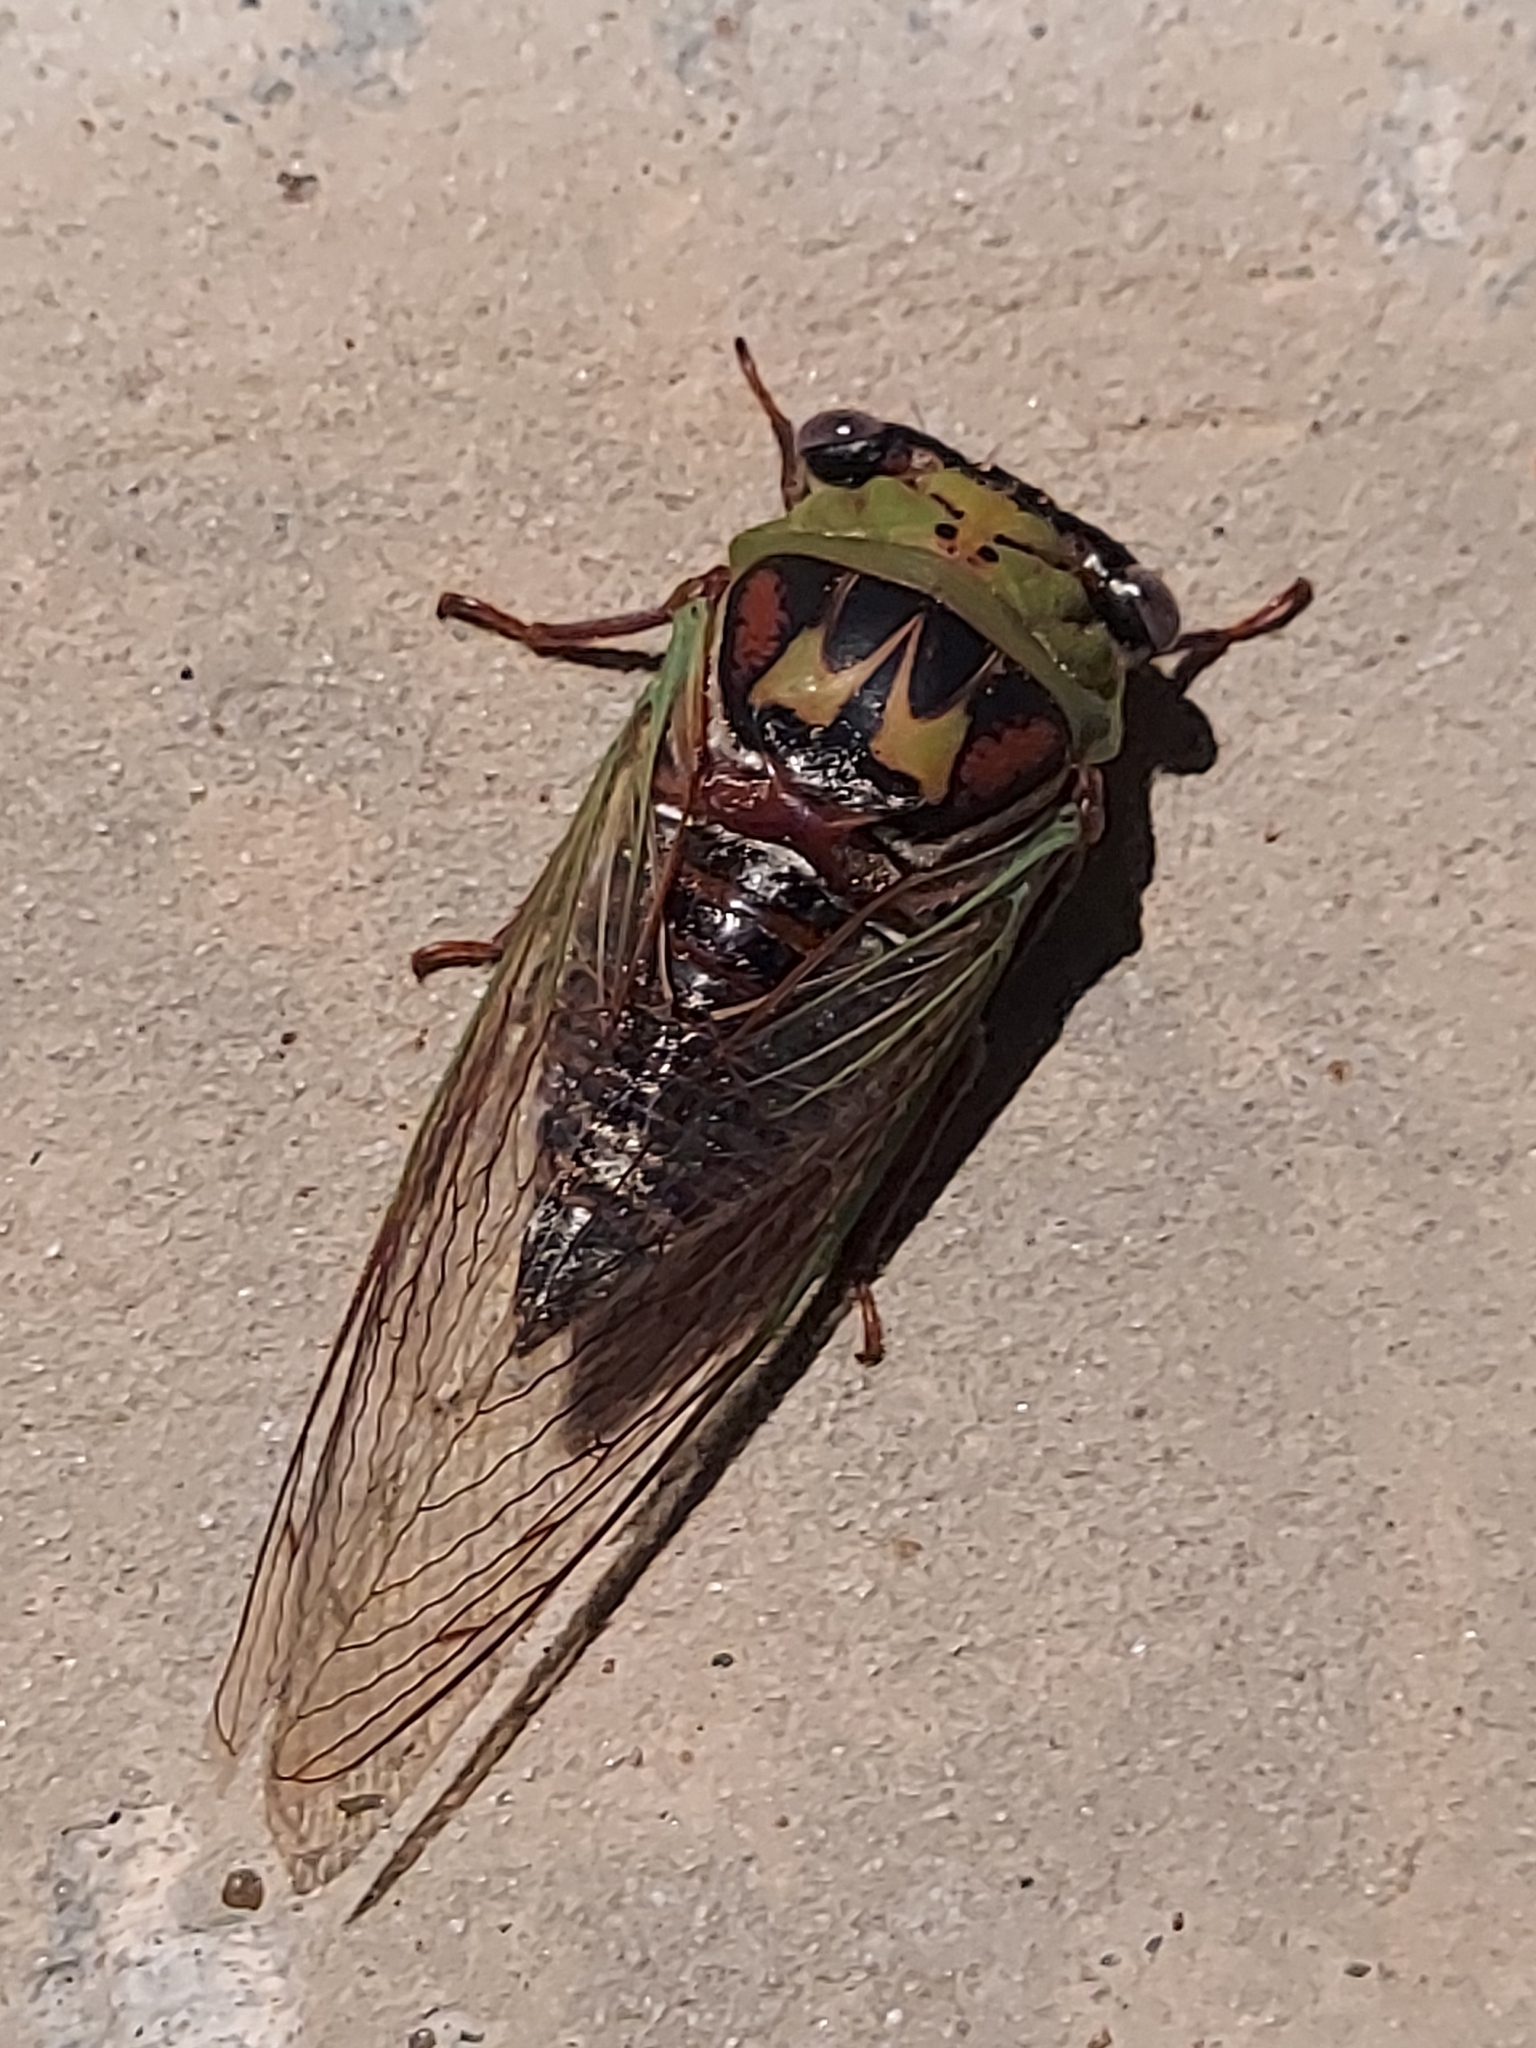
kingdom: Animalia
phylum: Arthropoda
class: Insecta
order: Hemiptera
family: Cicadidae
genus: Megatibicen
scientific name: Megatibicen pronotalis
